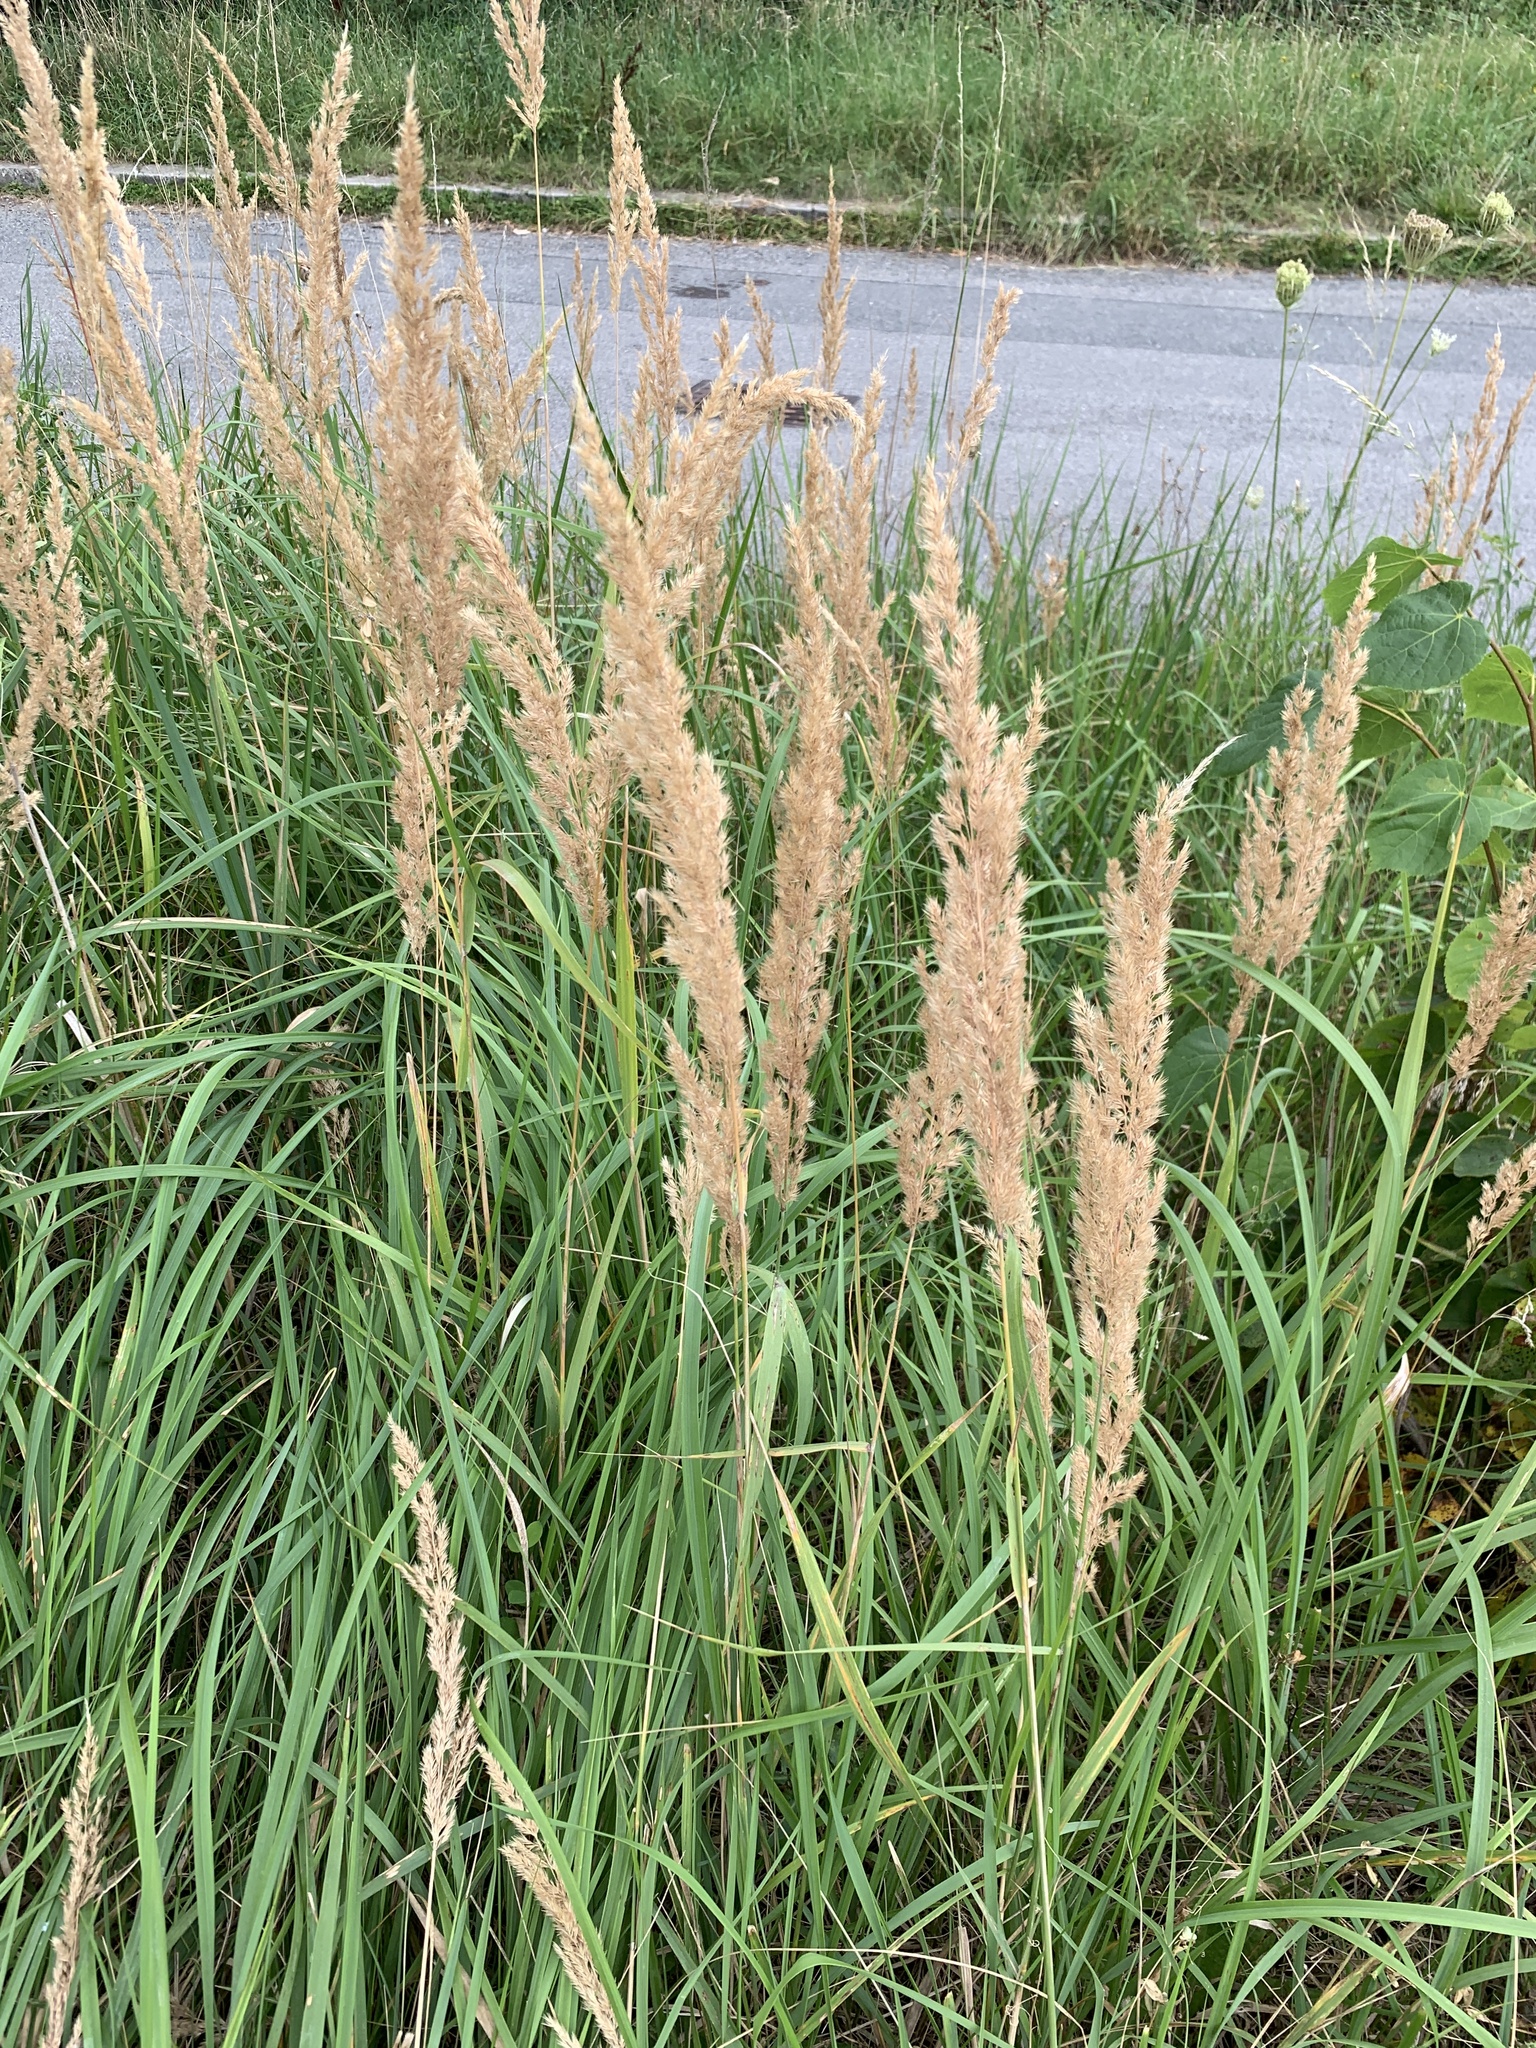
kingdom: Plantae
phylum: Tracheophyta
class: Liliopsida
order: Poales
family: Poaceae
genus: Calamagrostis
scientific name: Calamagrostis epigejos
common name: Wood small-reed
